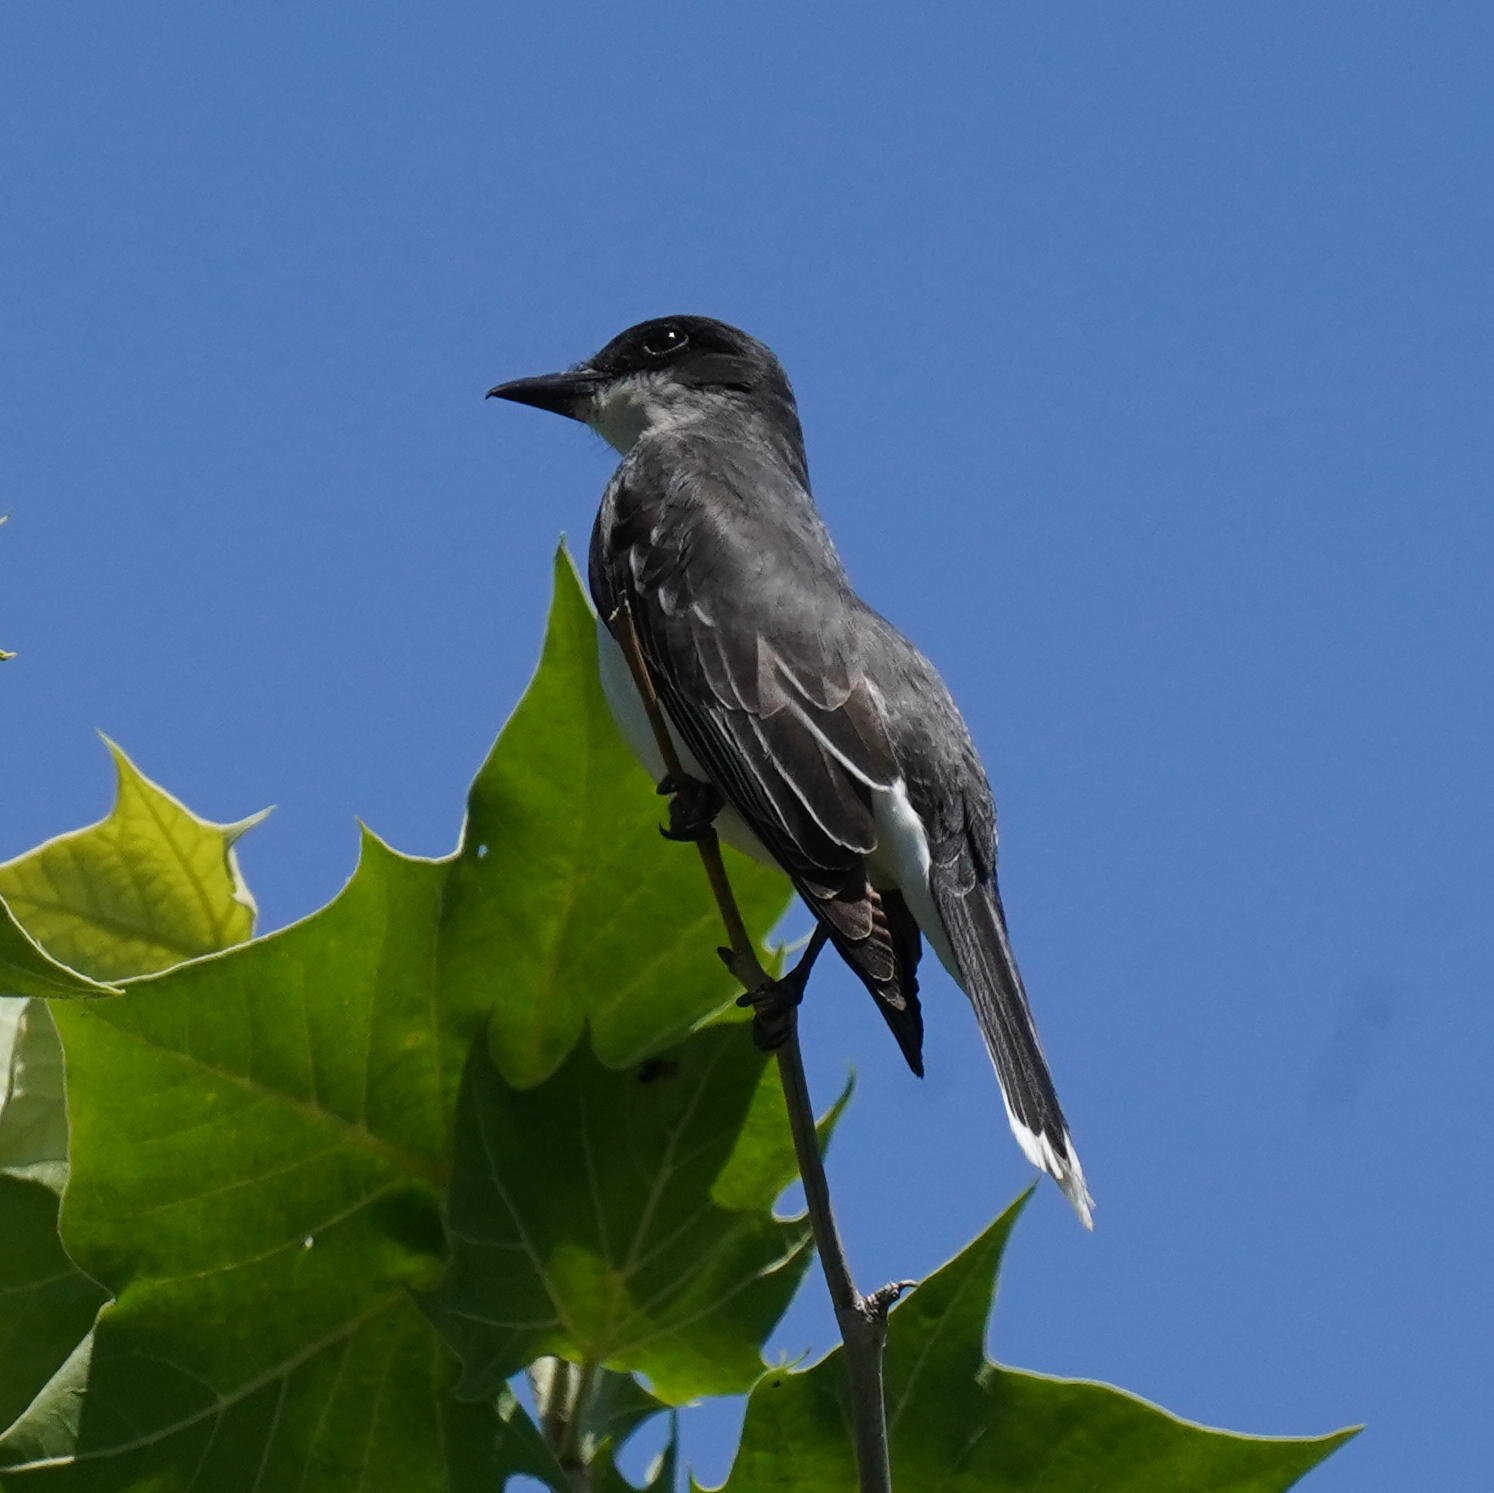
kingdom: Animalia
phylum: Chordata
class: Aves
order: Passeriformes
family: Tyrannidae
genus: Tyrannus
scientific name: Tyrannus tyrannus
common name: Eastern kingbird
